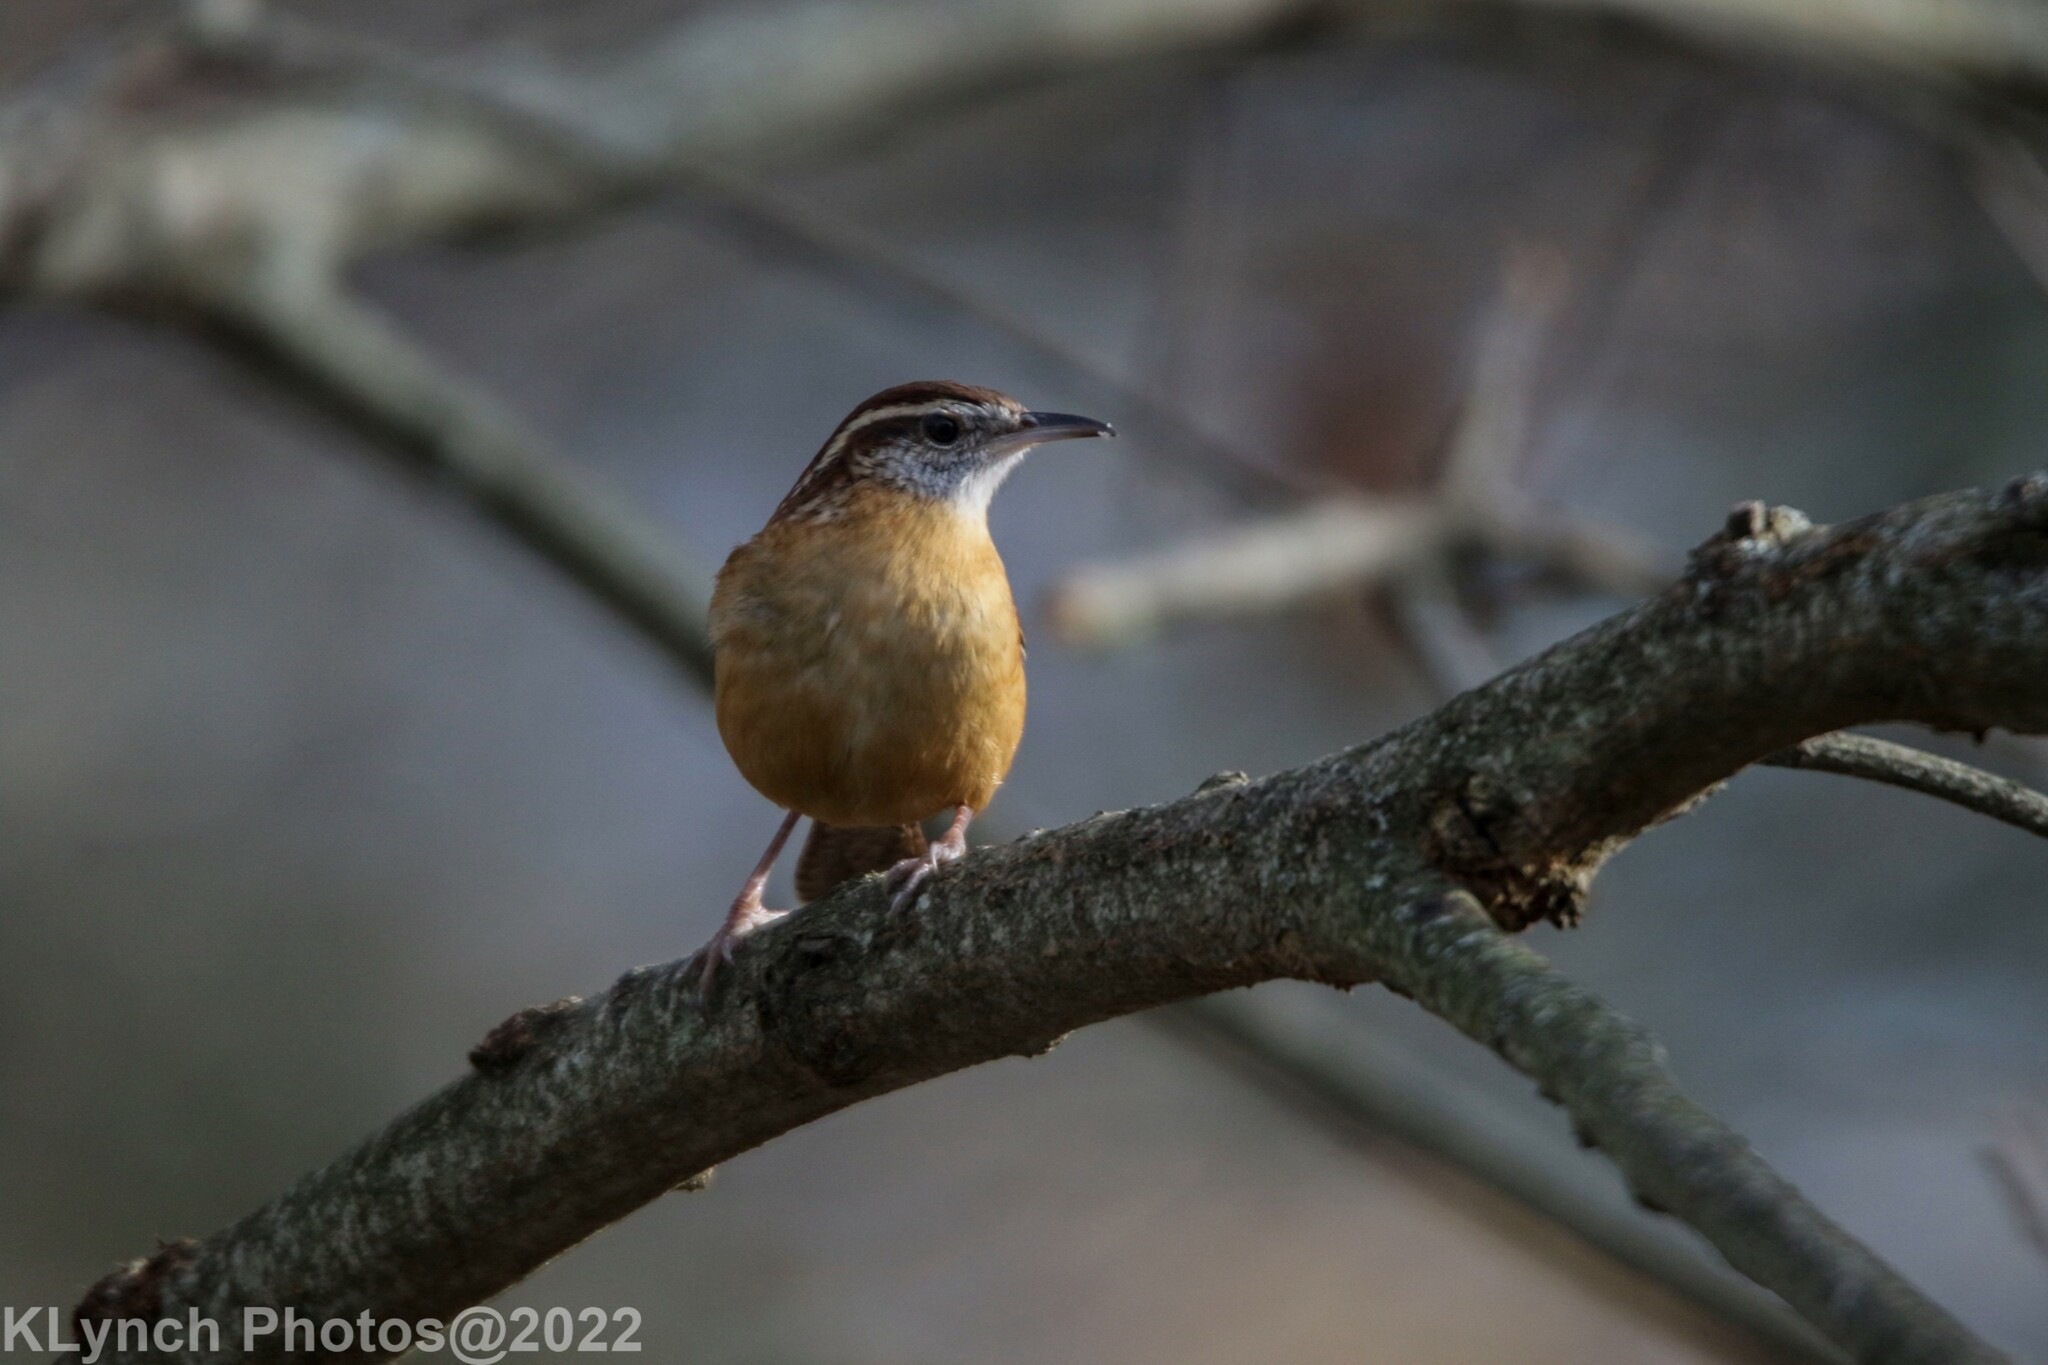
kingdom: Animalia
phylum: Chordata
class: Aves
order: Passeriformes
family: Troglodytidae
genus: Thryothorus
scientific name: Thryothorus ludovicianus
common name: Carolina wren
